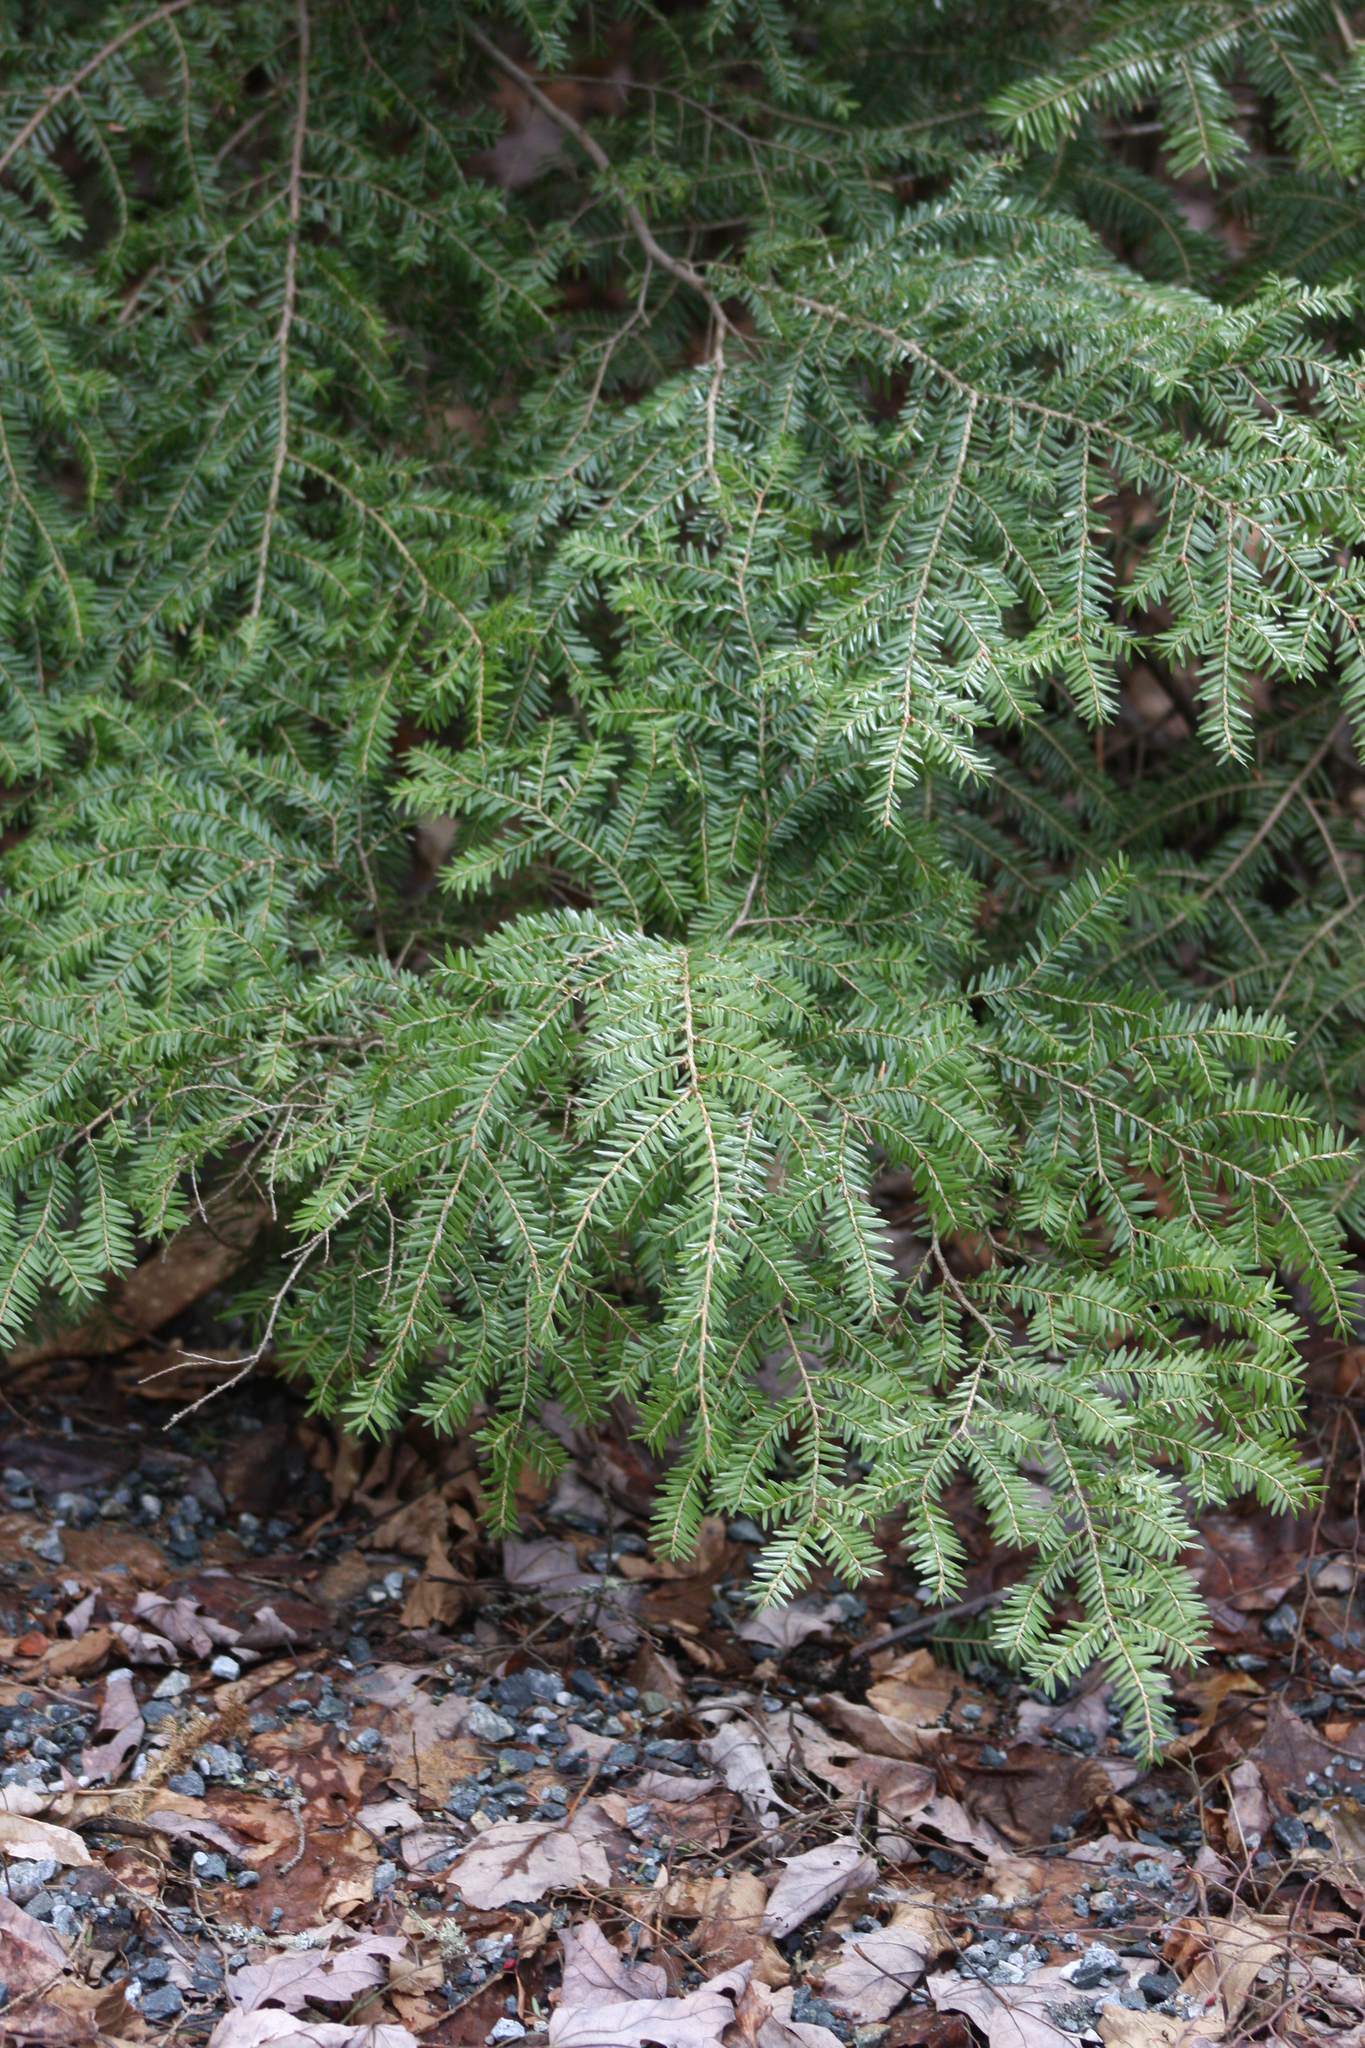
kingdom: Plantae
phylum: Tracheophyta
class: Pinopsida
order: Pinales
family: Pinaceae
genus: Tsuga
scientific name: Tsuga canadensis
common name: Eastern hemlock
